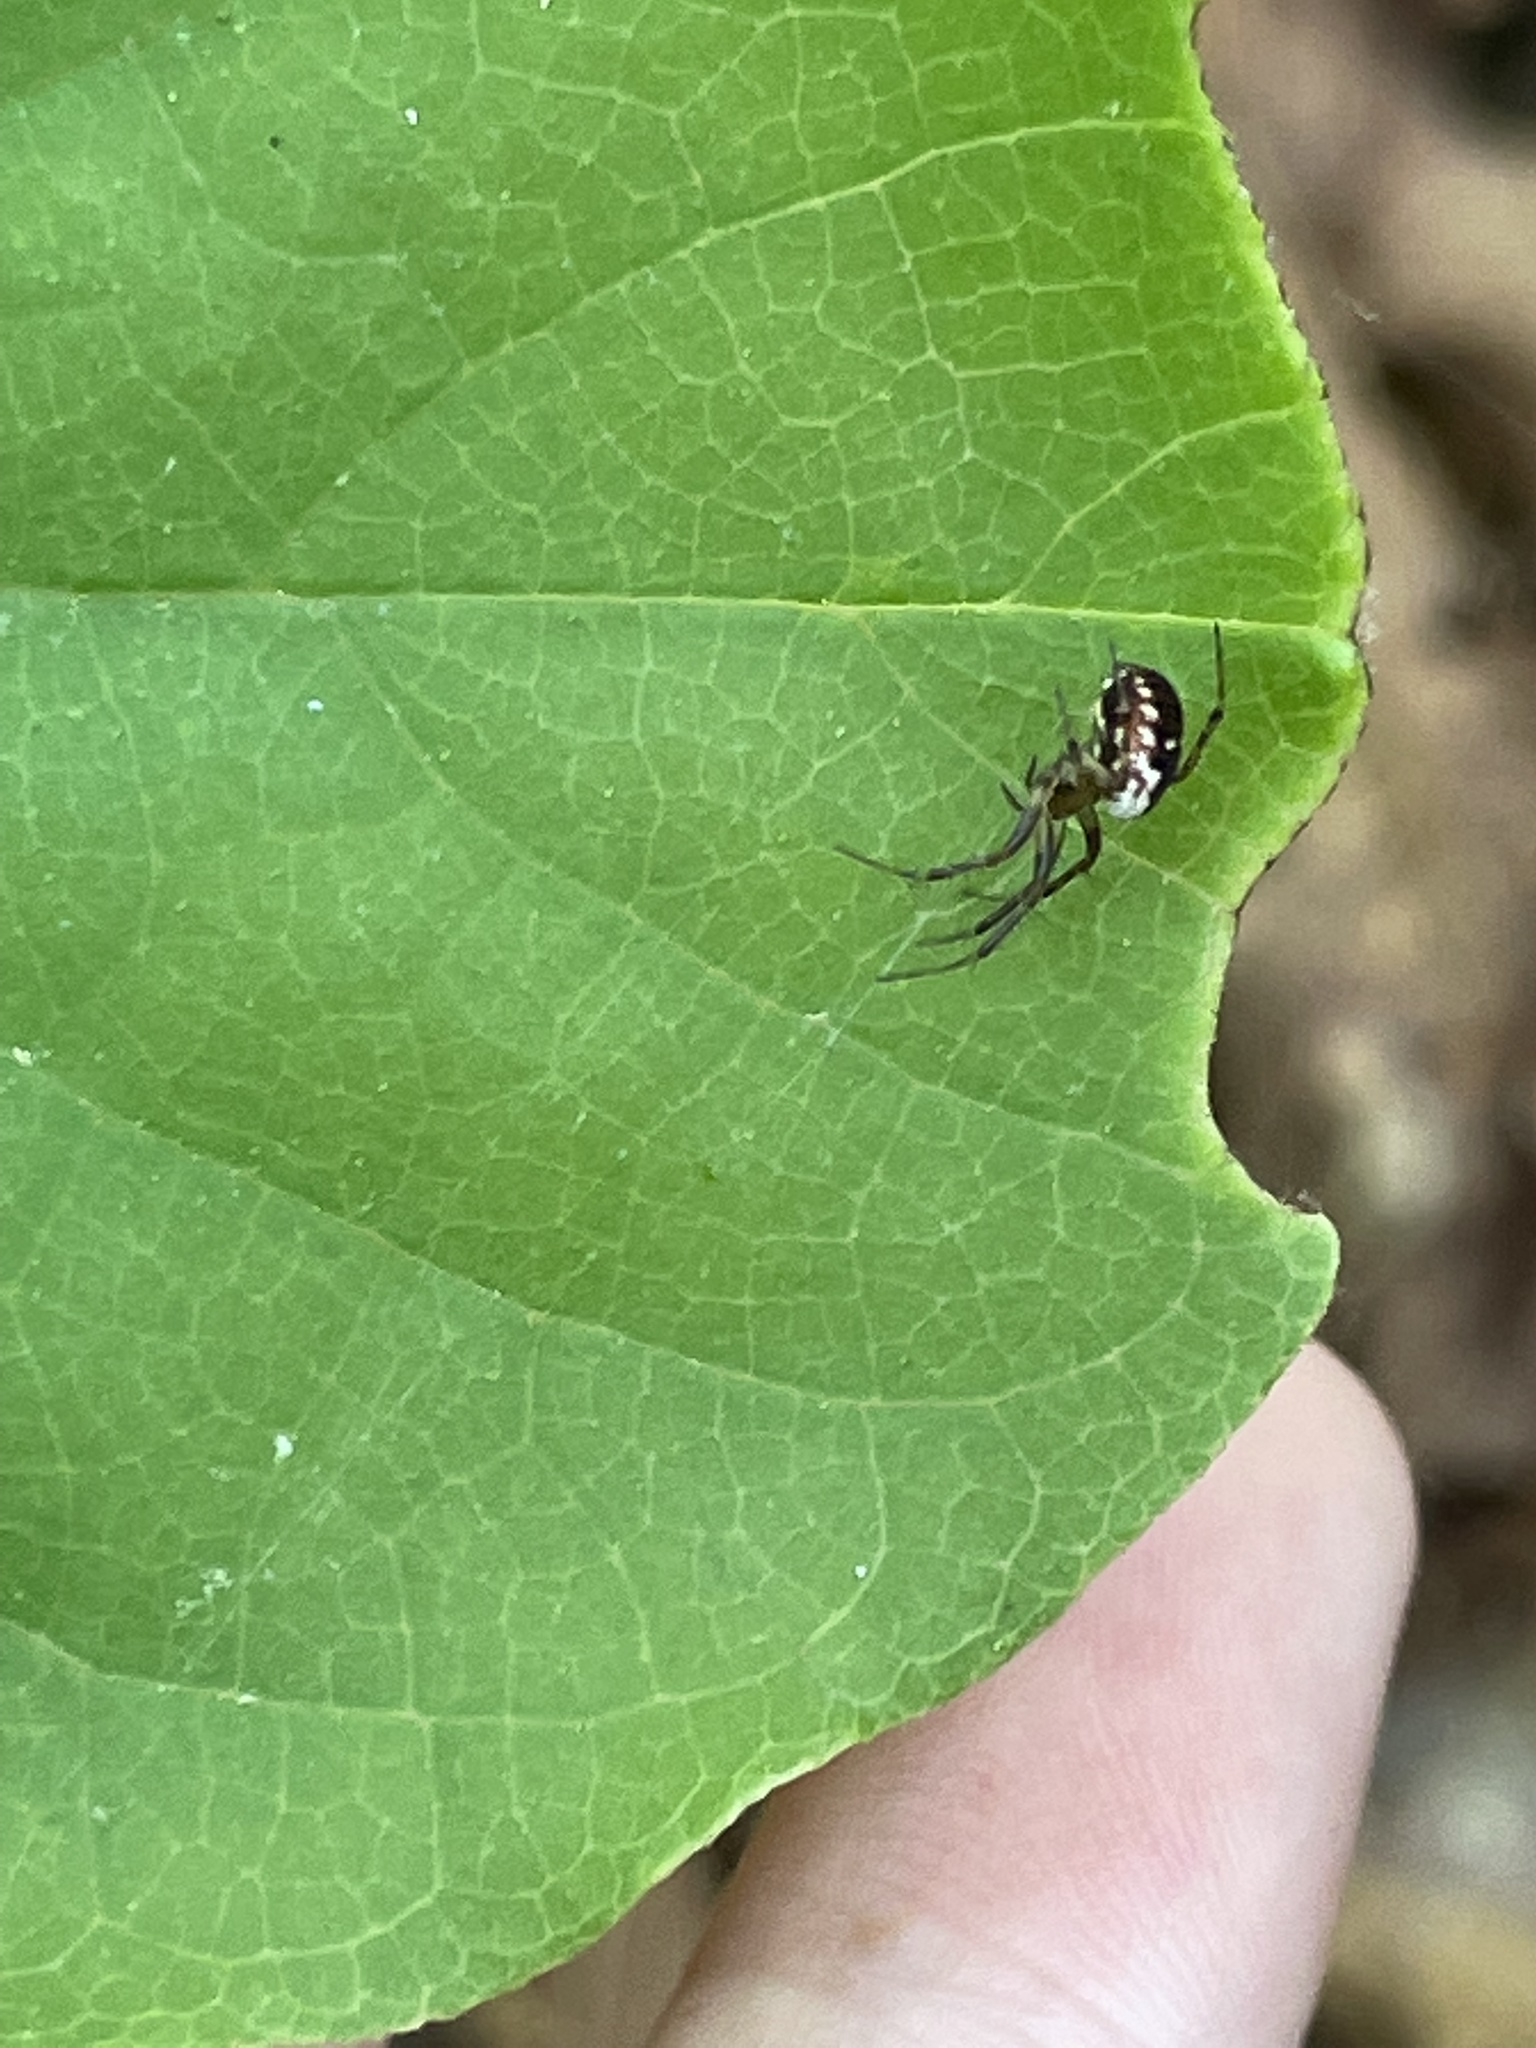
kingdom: Animalia
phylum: Arthropoda
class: Arachnida
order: Araneae
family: Araneidae
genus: Mangora
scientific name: Mangora placida
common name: Tuft-legged orbweaver
